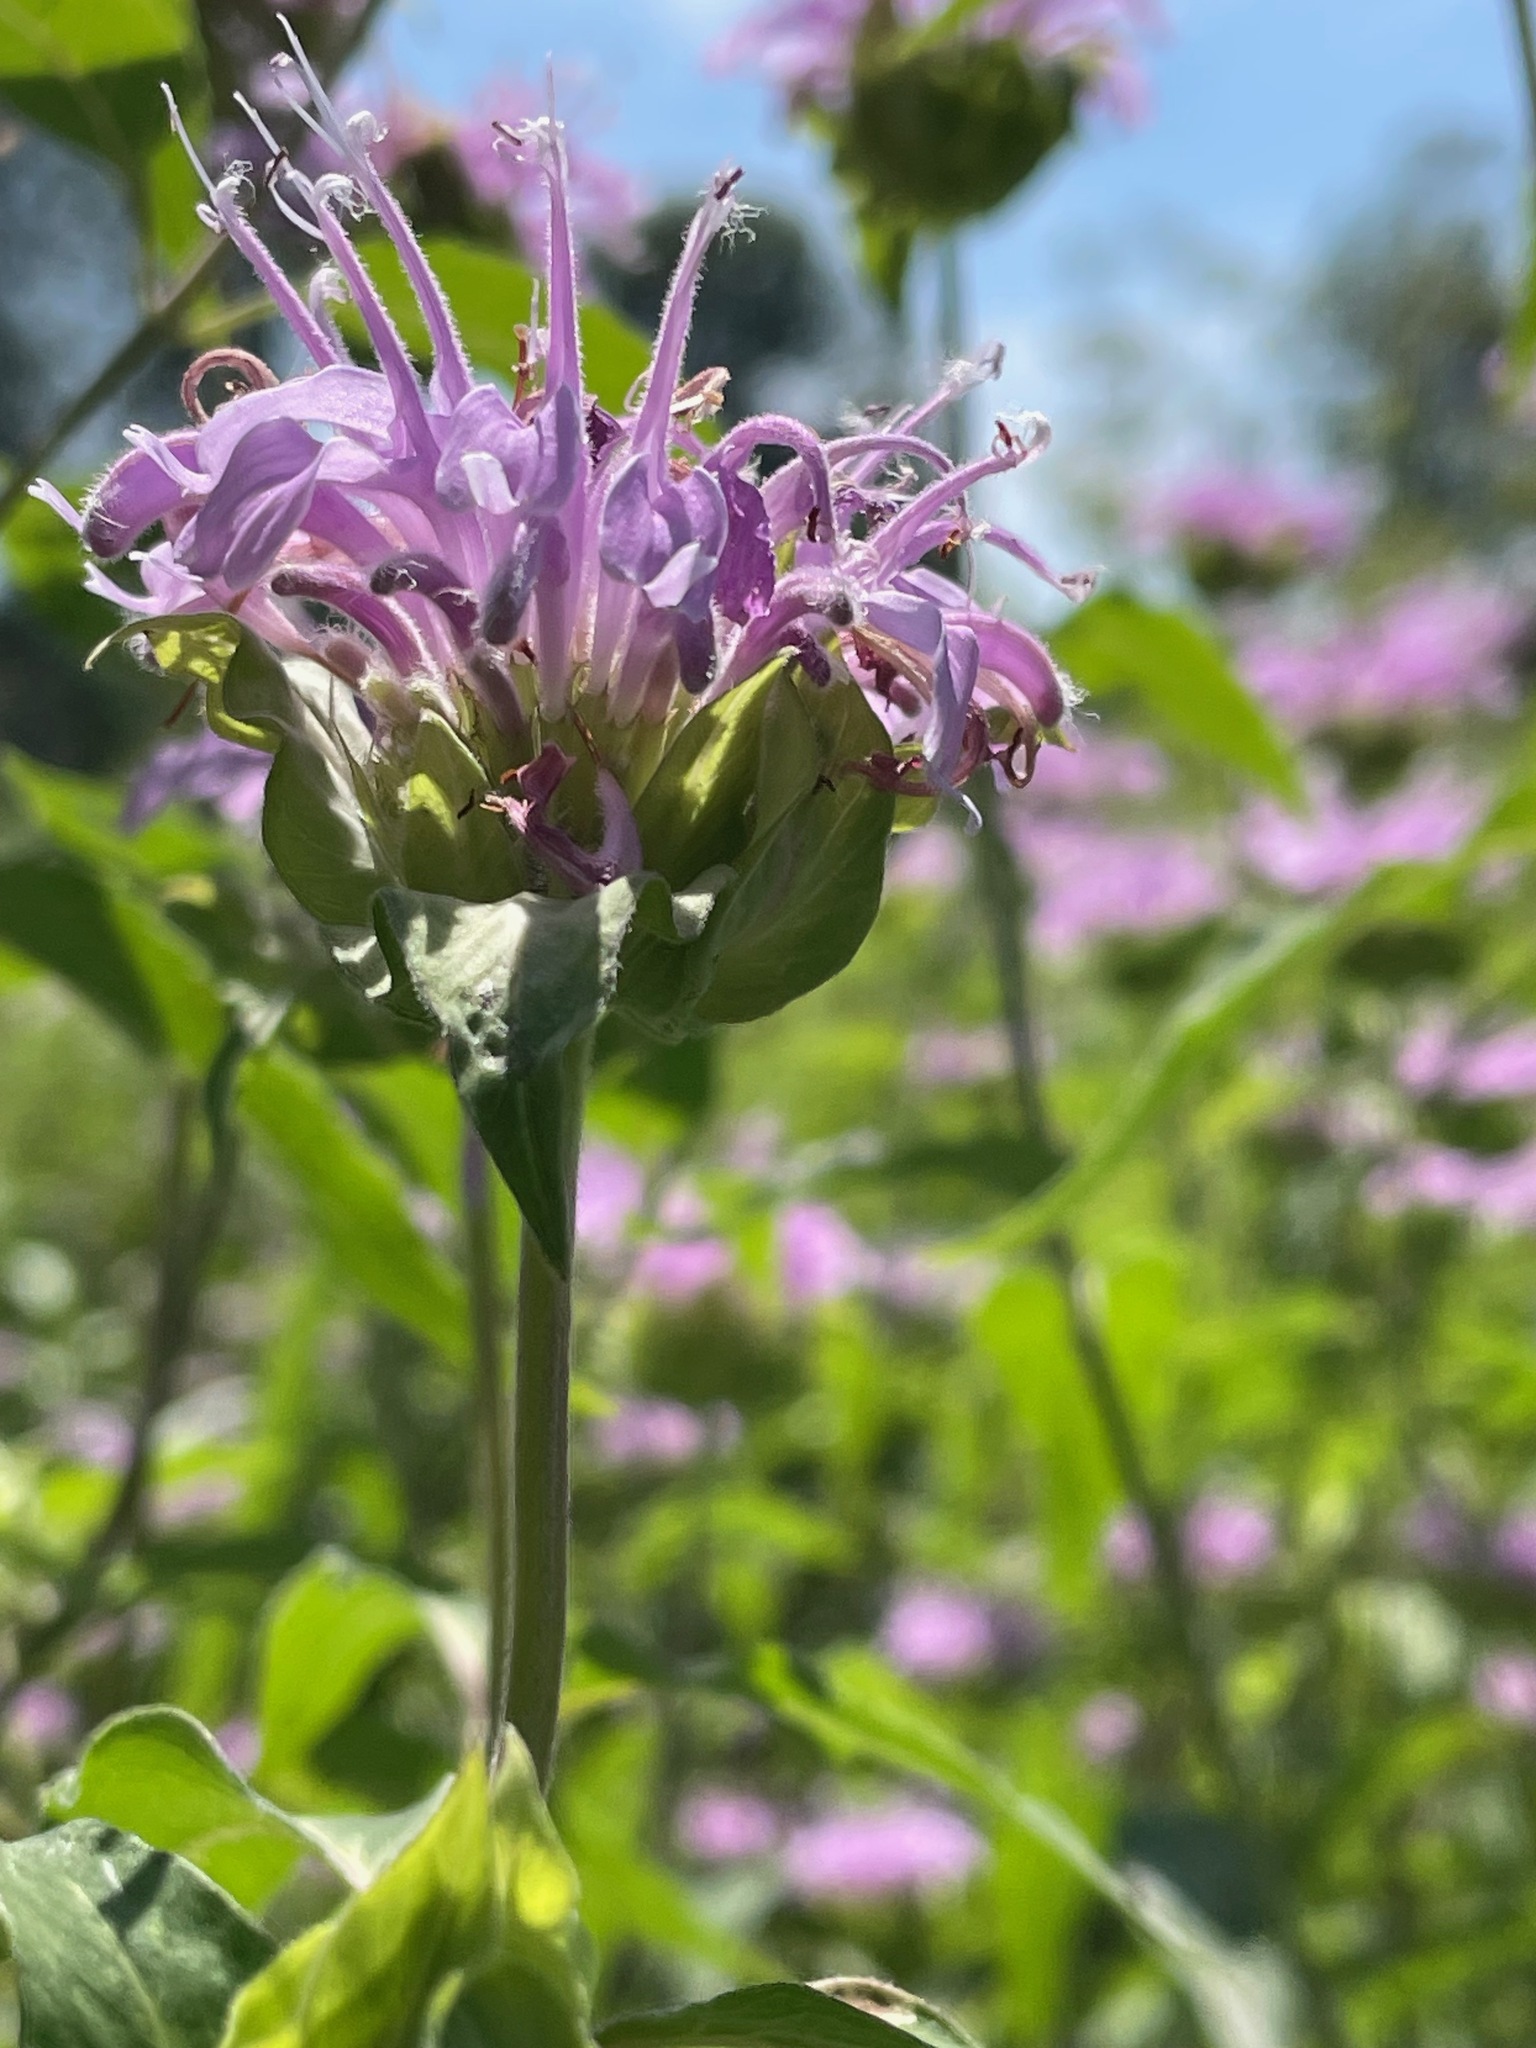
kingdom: Plantae
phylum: Tracheophyta
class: Magnoliopsida
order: Lamiales
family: Lamiaceae
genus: Monarda
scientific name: Monarda fistulosa
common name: Purple beebalm
